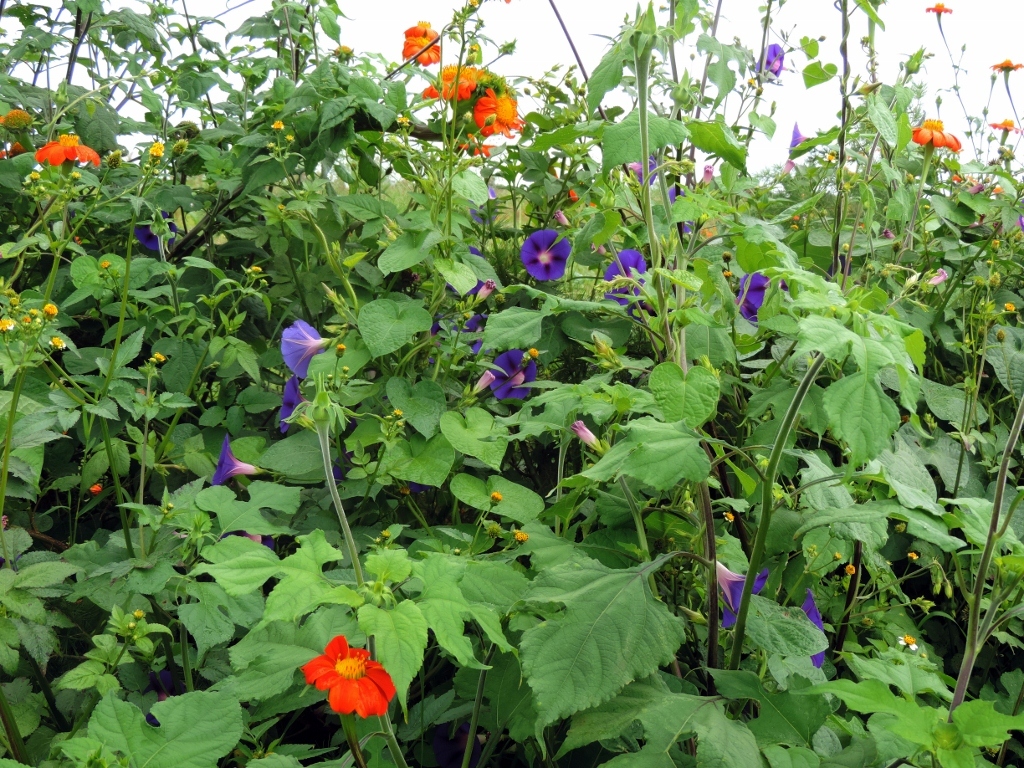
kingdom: Plantae
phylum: Tracheophyta
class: Magnoliopsida
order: Solanales
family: Convolvulaceae
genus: Ipomoea
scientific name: Ipomoea purpurea
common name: Common morning-glory
